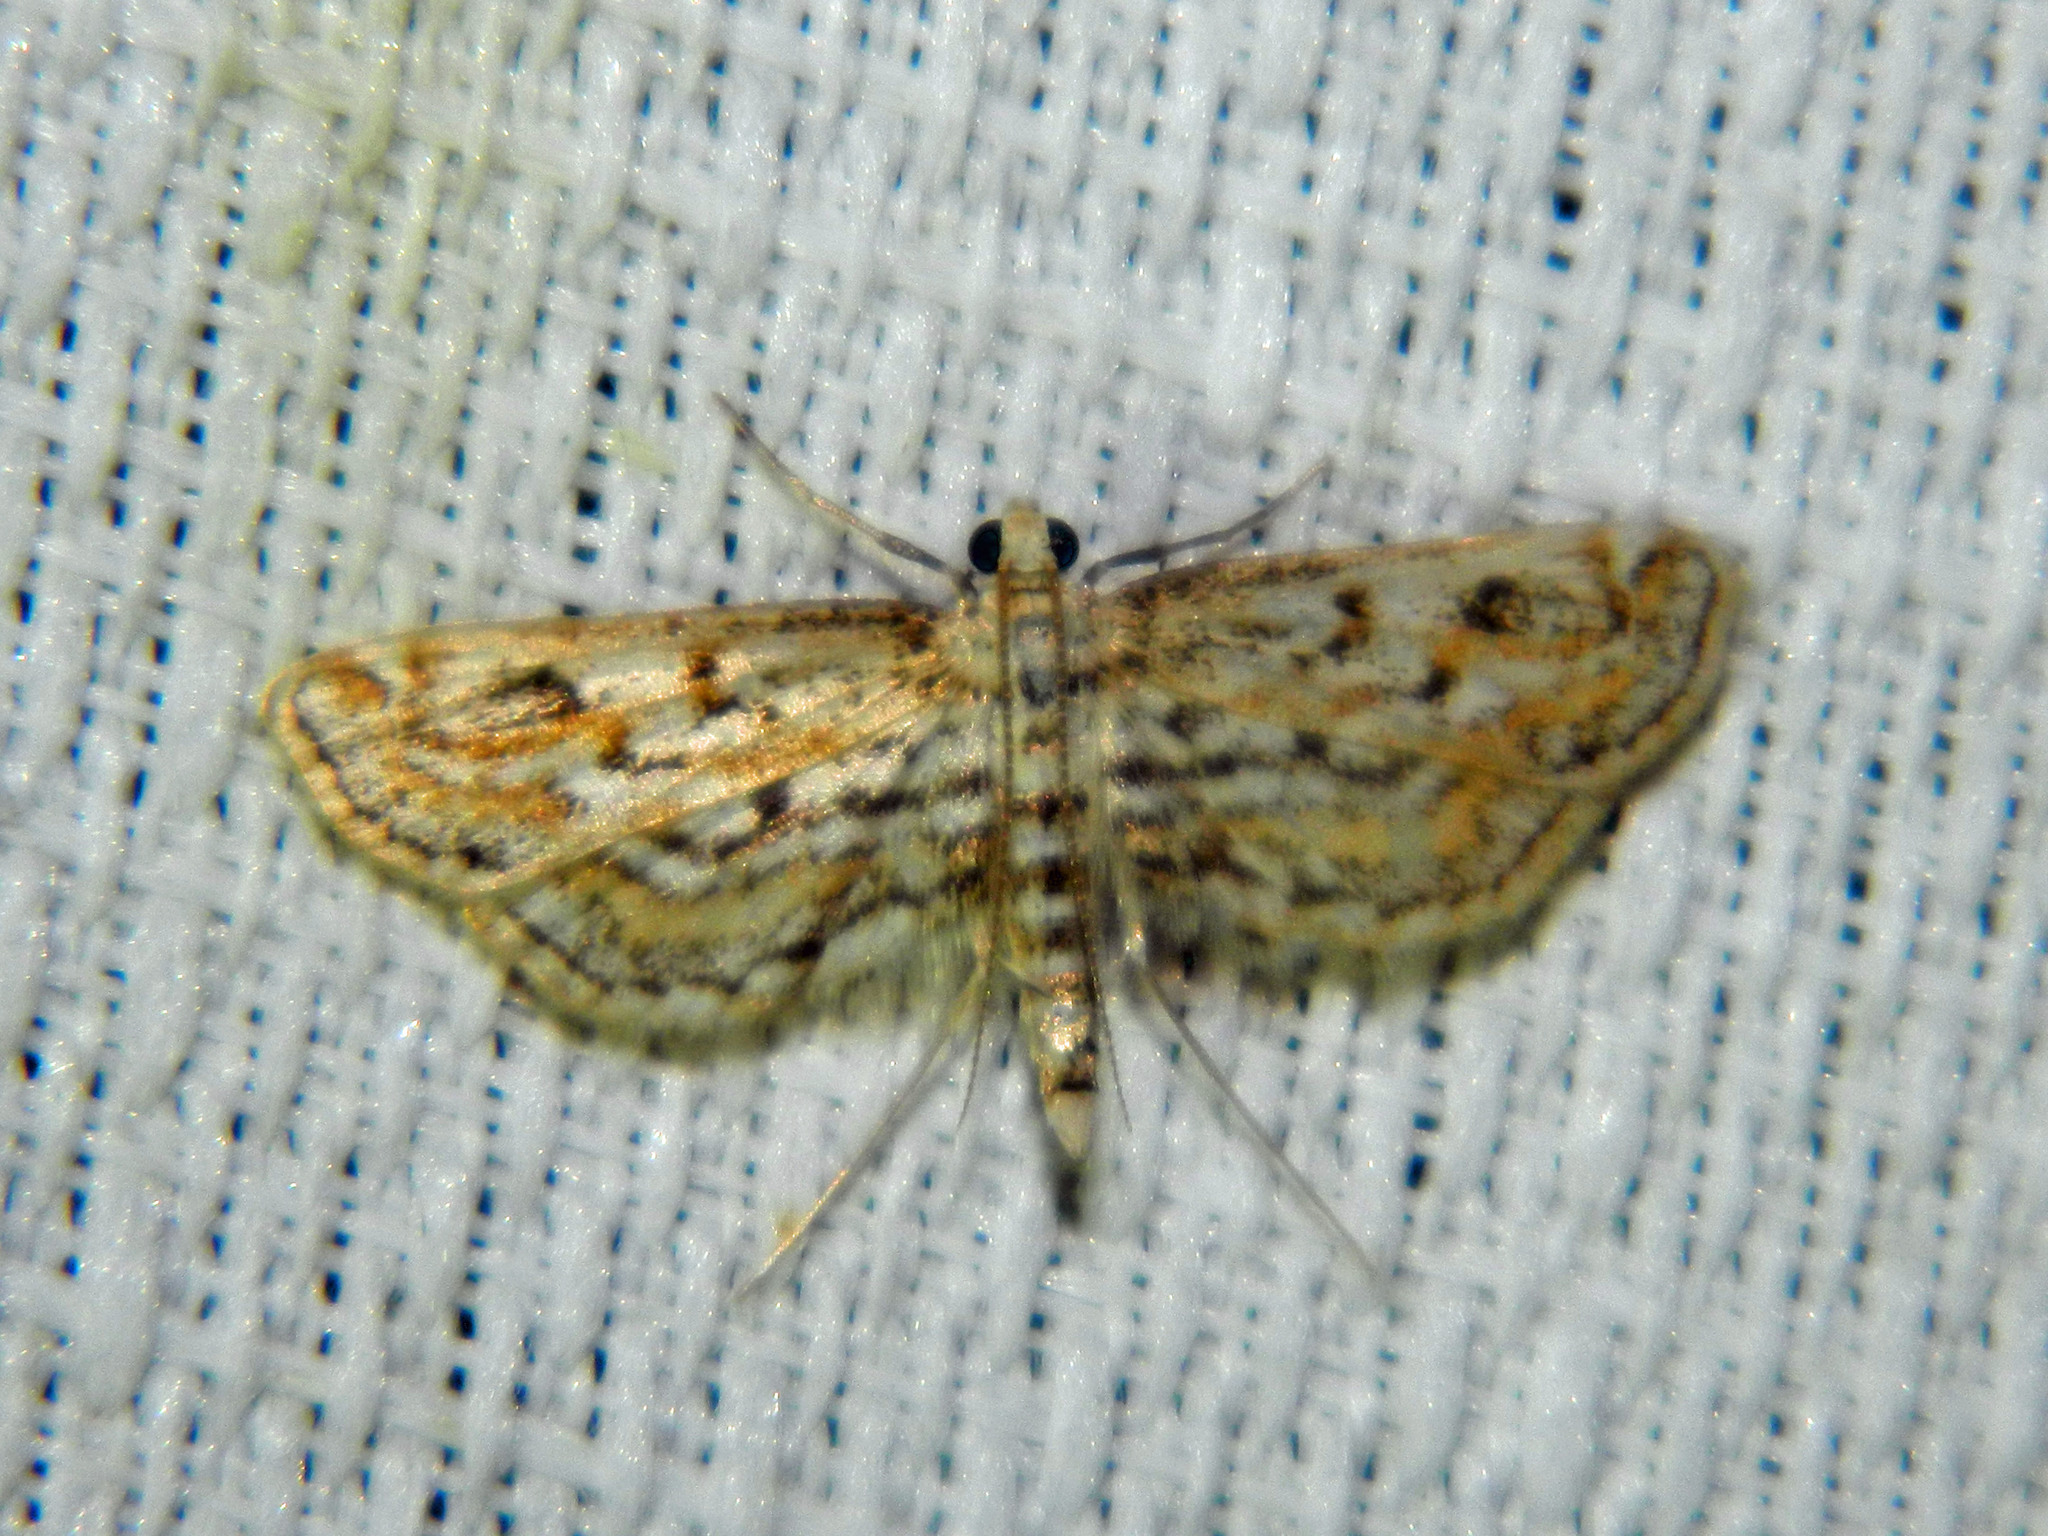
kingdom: Animalia
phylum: Arthropoda
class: Insecta
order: Lepidoptera
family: Crambidae
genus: Parapoynx
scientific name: Parapoynx allionealis
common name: Bladderwort casemaker
